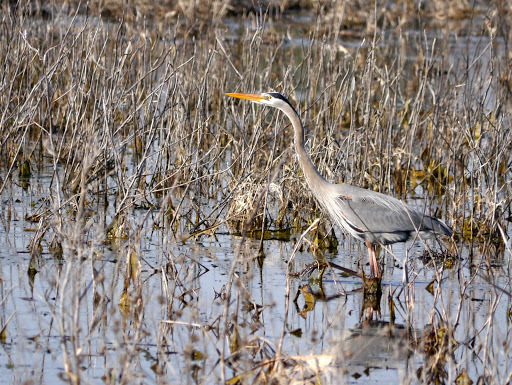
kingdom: Animalia
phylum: Chordata
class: Aves
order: Pelecaniformes
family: Ardeidae
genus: Ardea
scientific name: Ardea herodias
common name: Great blue heron
